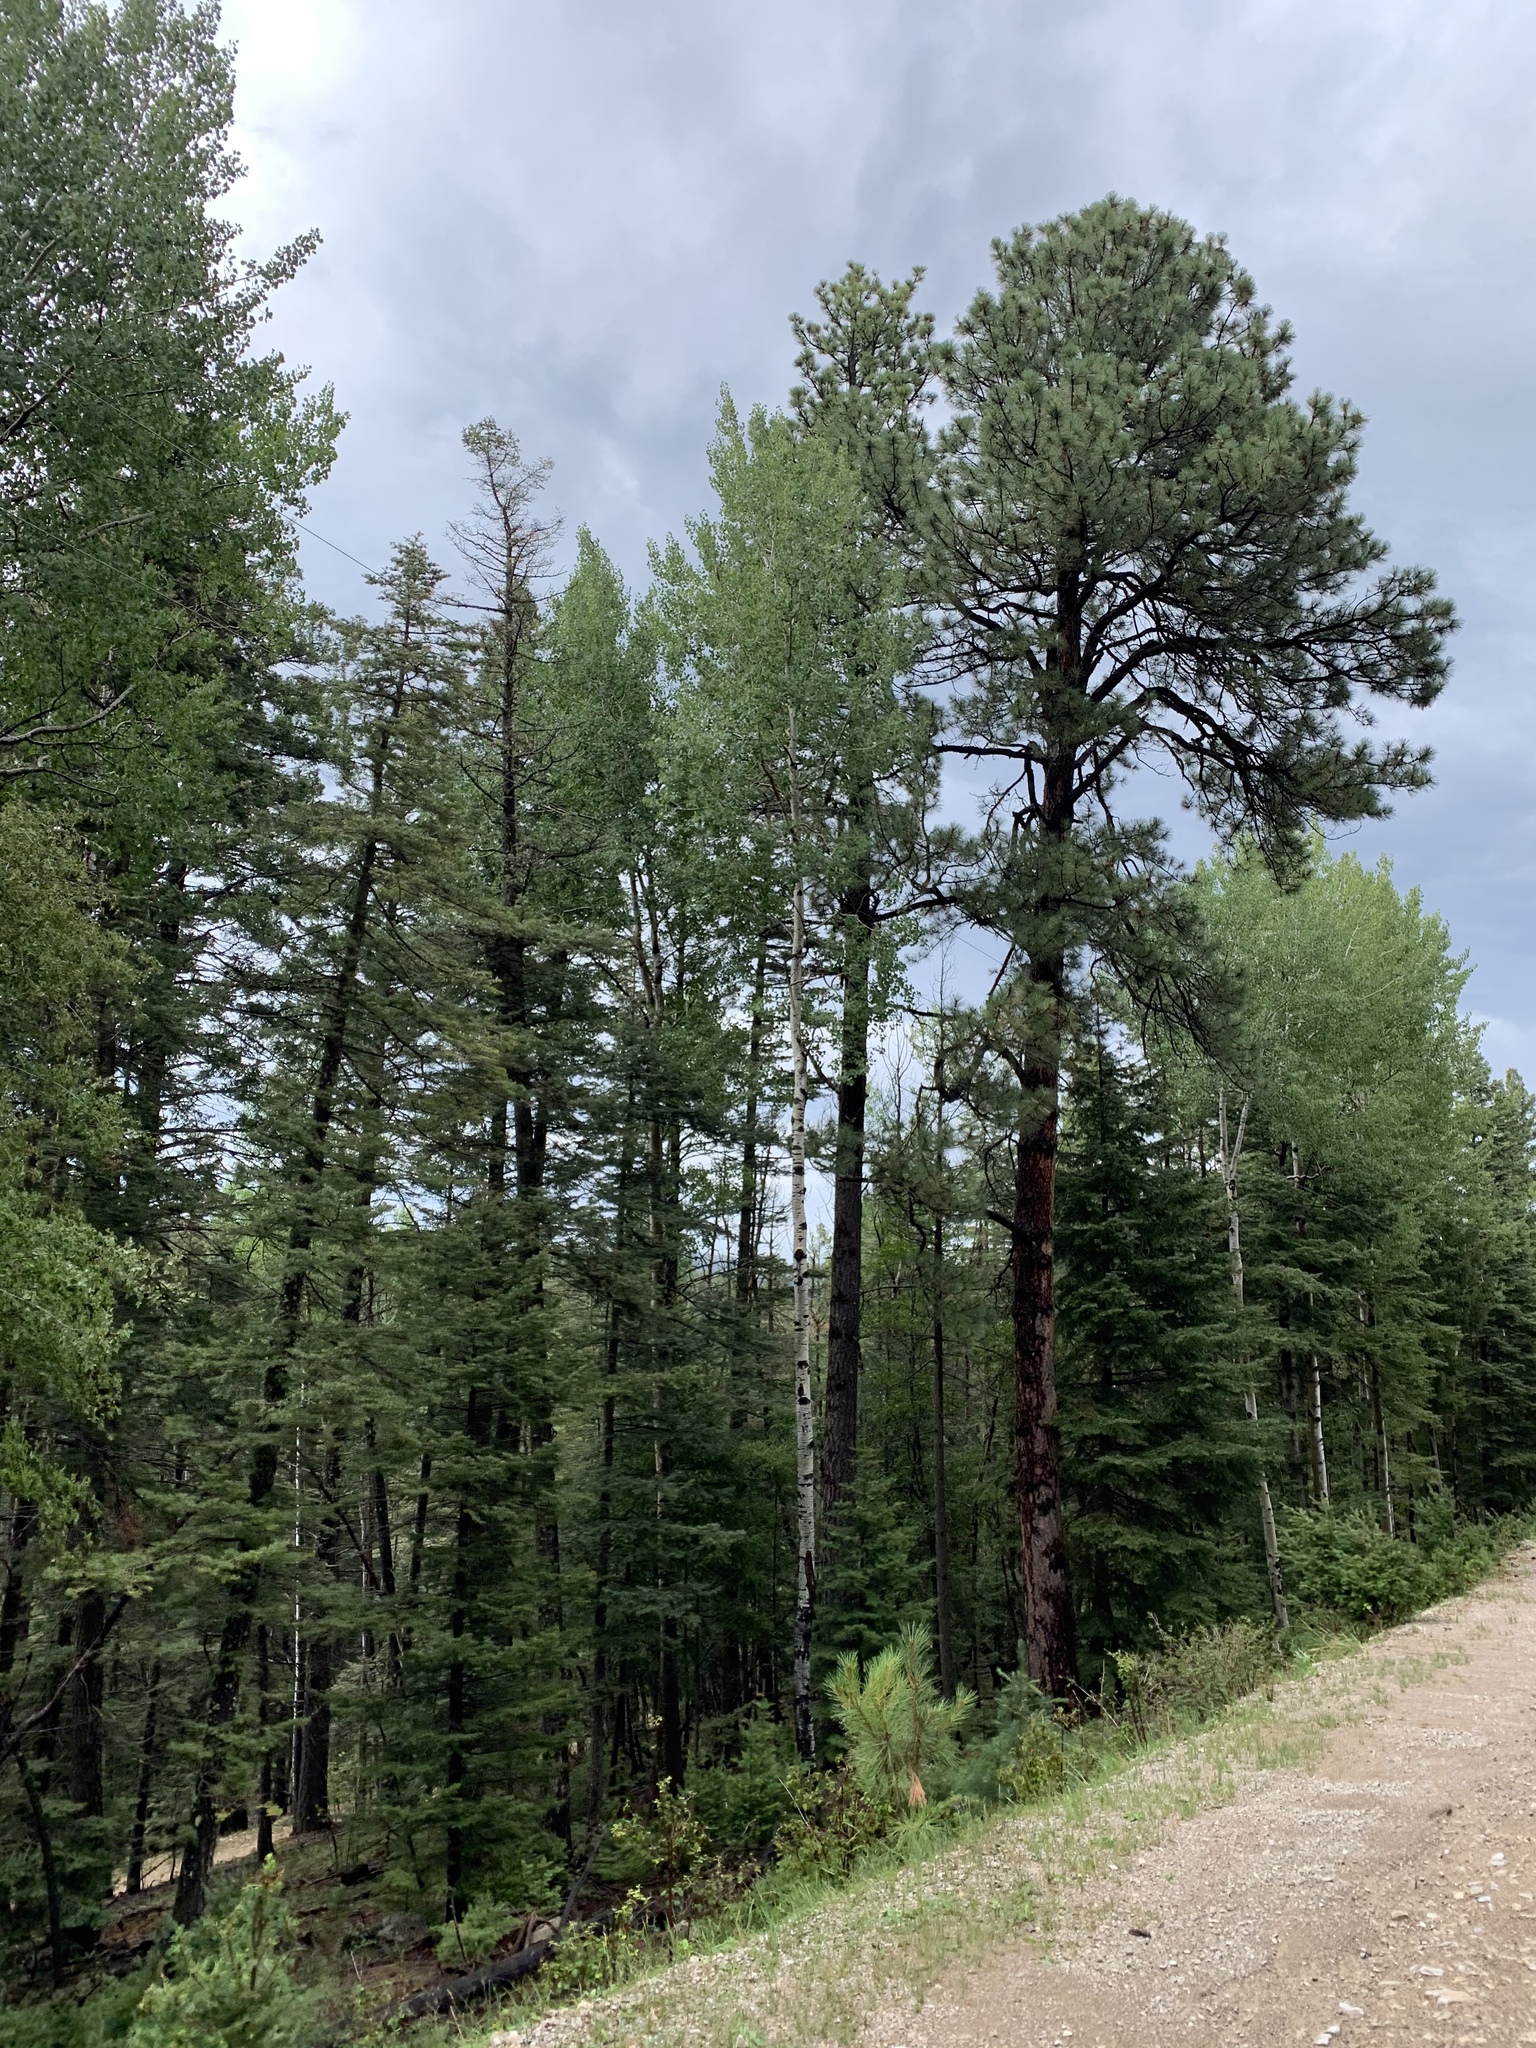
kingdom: Plantae
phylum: Tracheophyta
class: Magnoliopsida
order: Malpighiales
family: Salicaceae
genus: Populus
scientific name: Populus tremuloides
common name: Quaking aspen
